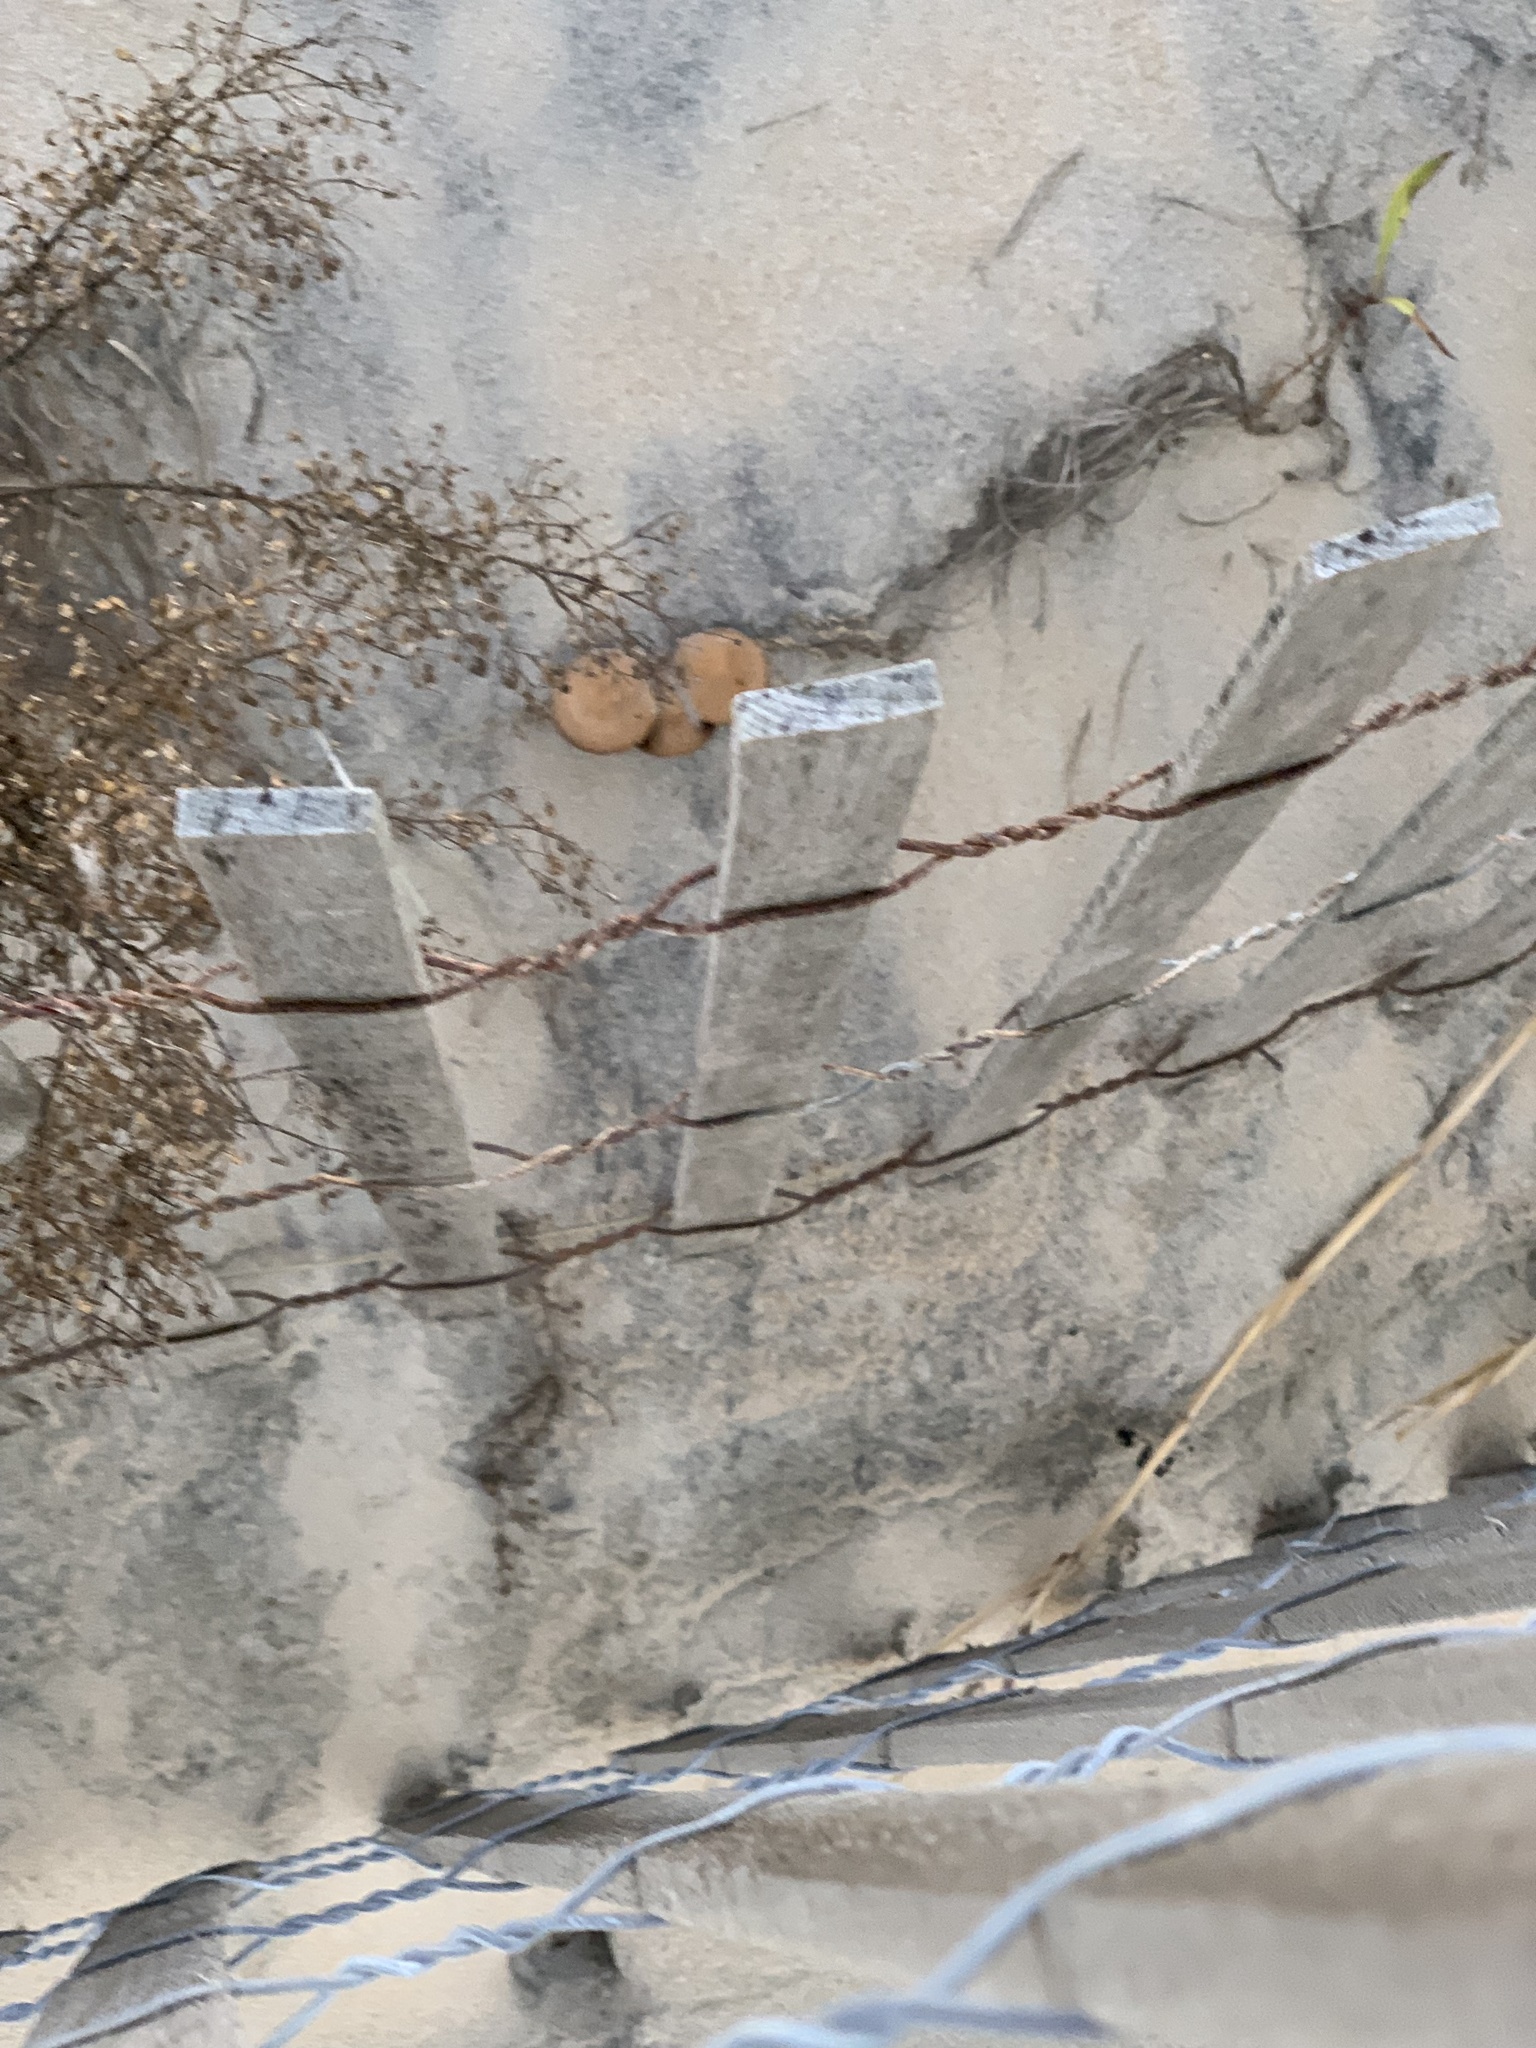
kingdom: Fungi
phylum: Basidiomycota
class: Agaricomycetes
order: Agaricales
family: Hydnangiaceae
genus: Laccaria
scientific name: Laccaria trullissata
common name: Sandy laccaria
